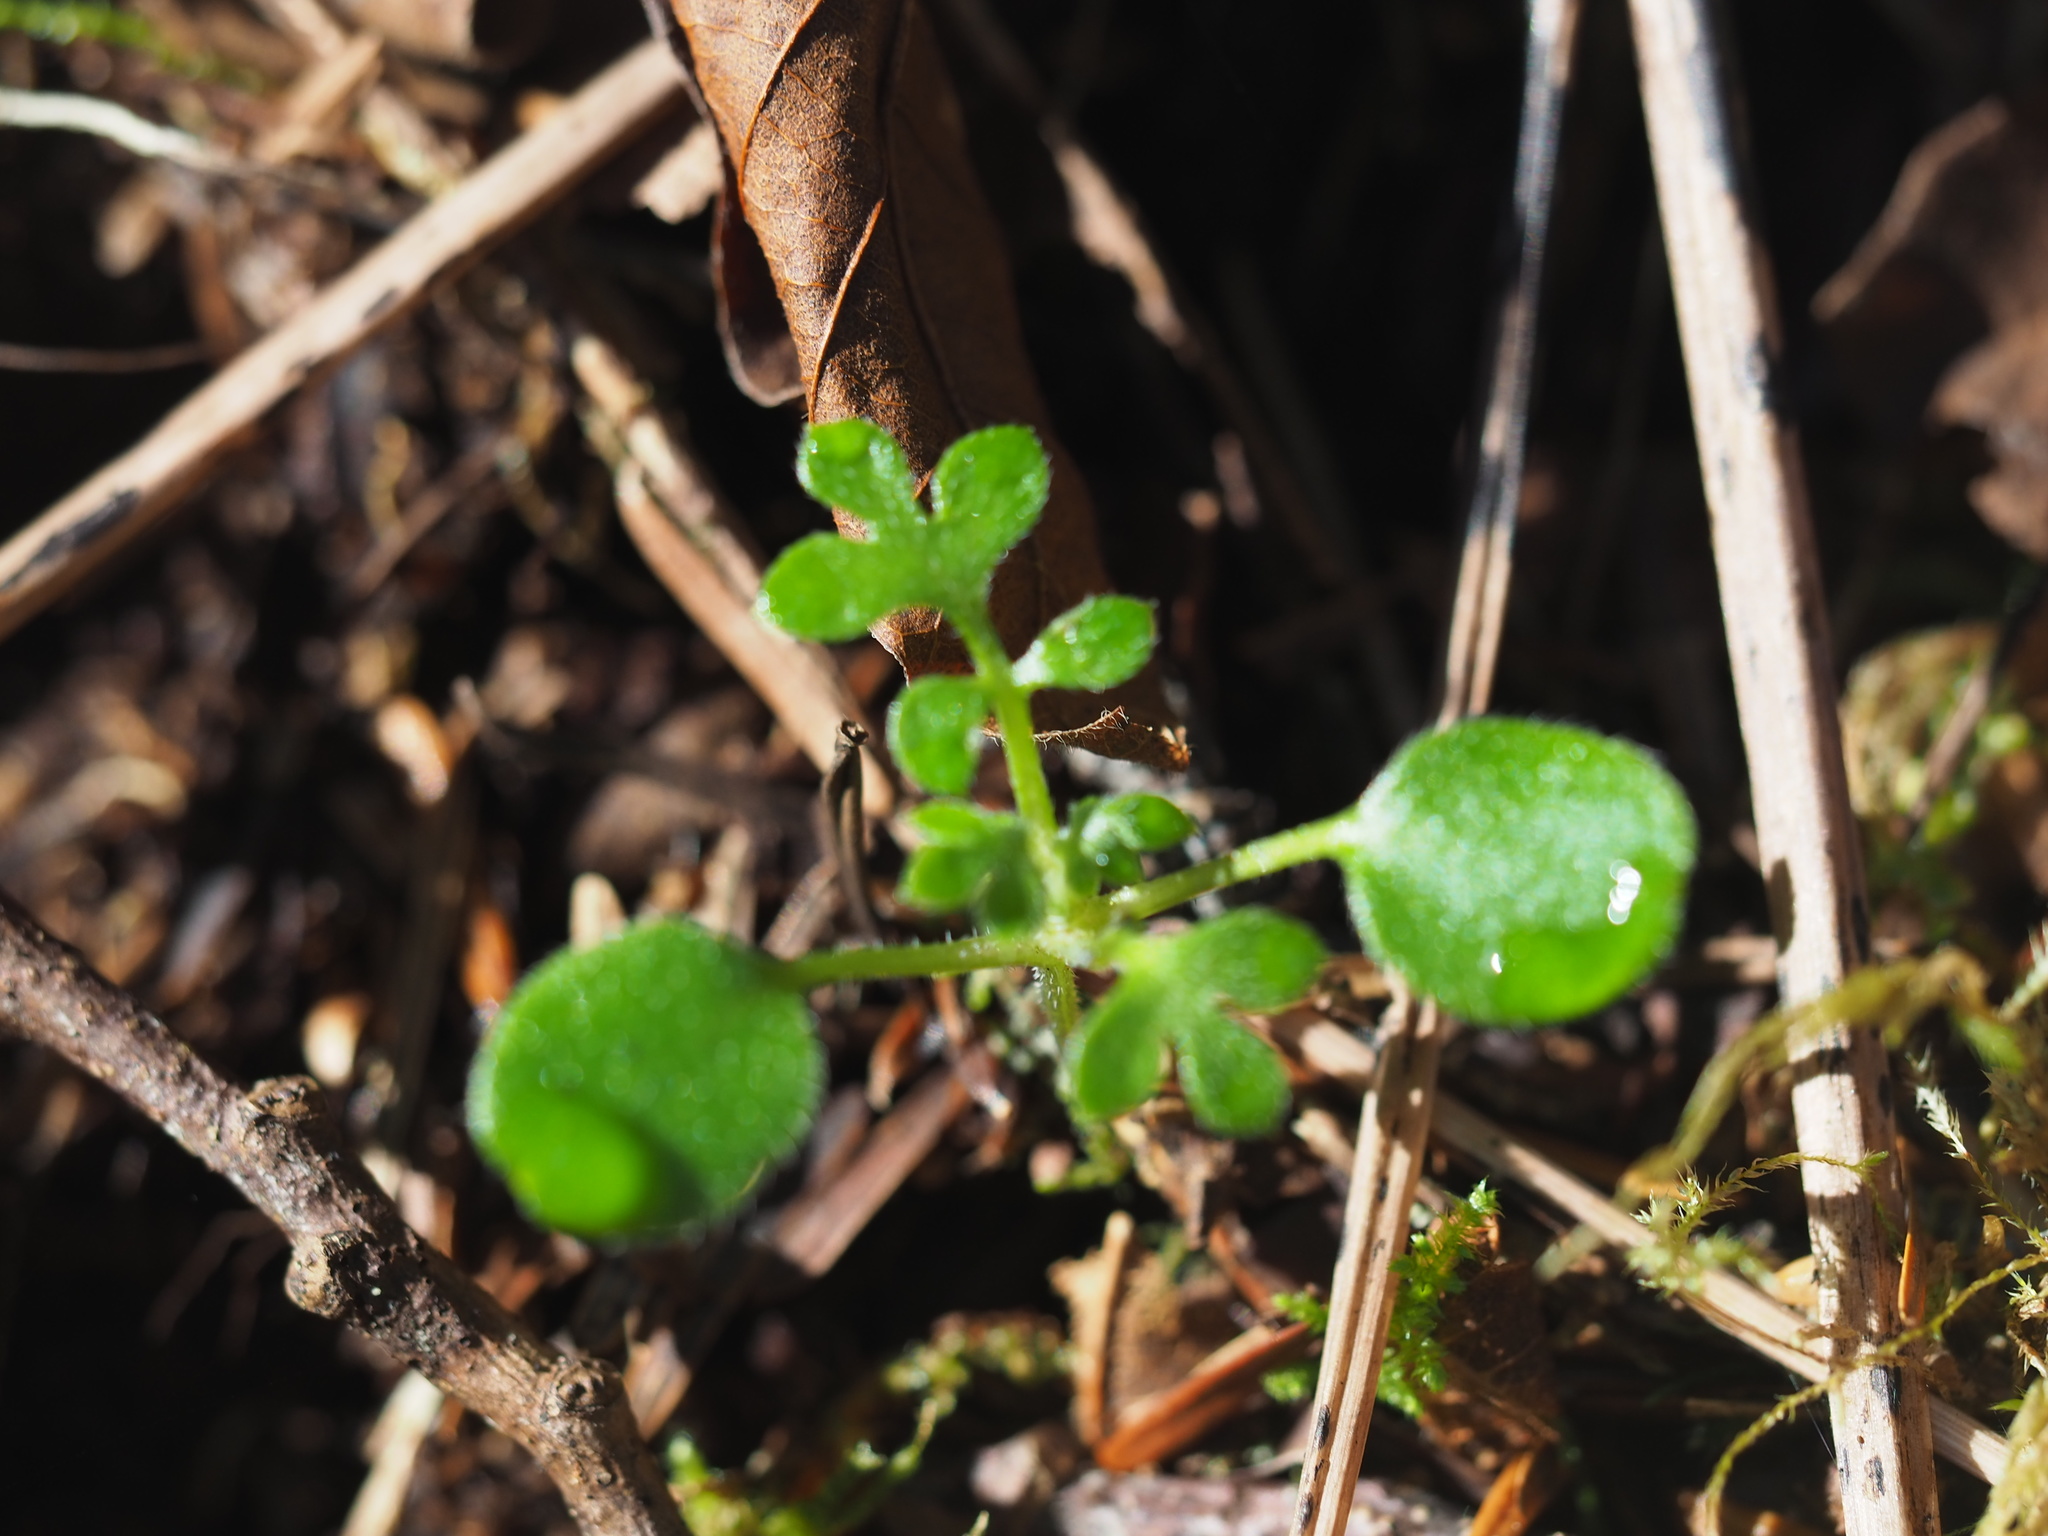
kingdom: Plantae
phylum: Tracheophyta
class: Magnoliopsida
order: Boraginales
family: Hydrophyllaceae
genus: Nemophila
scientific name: Nemophila parviflora
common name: Small-flowered baby-blue-eyes
